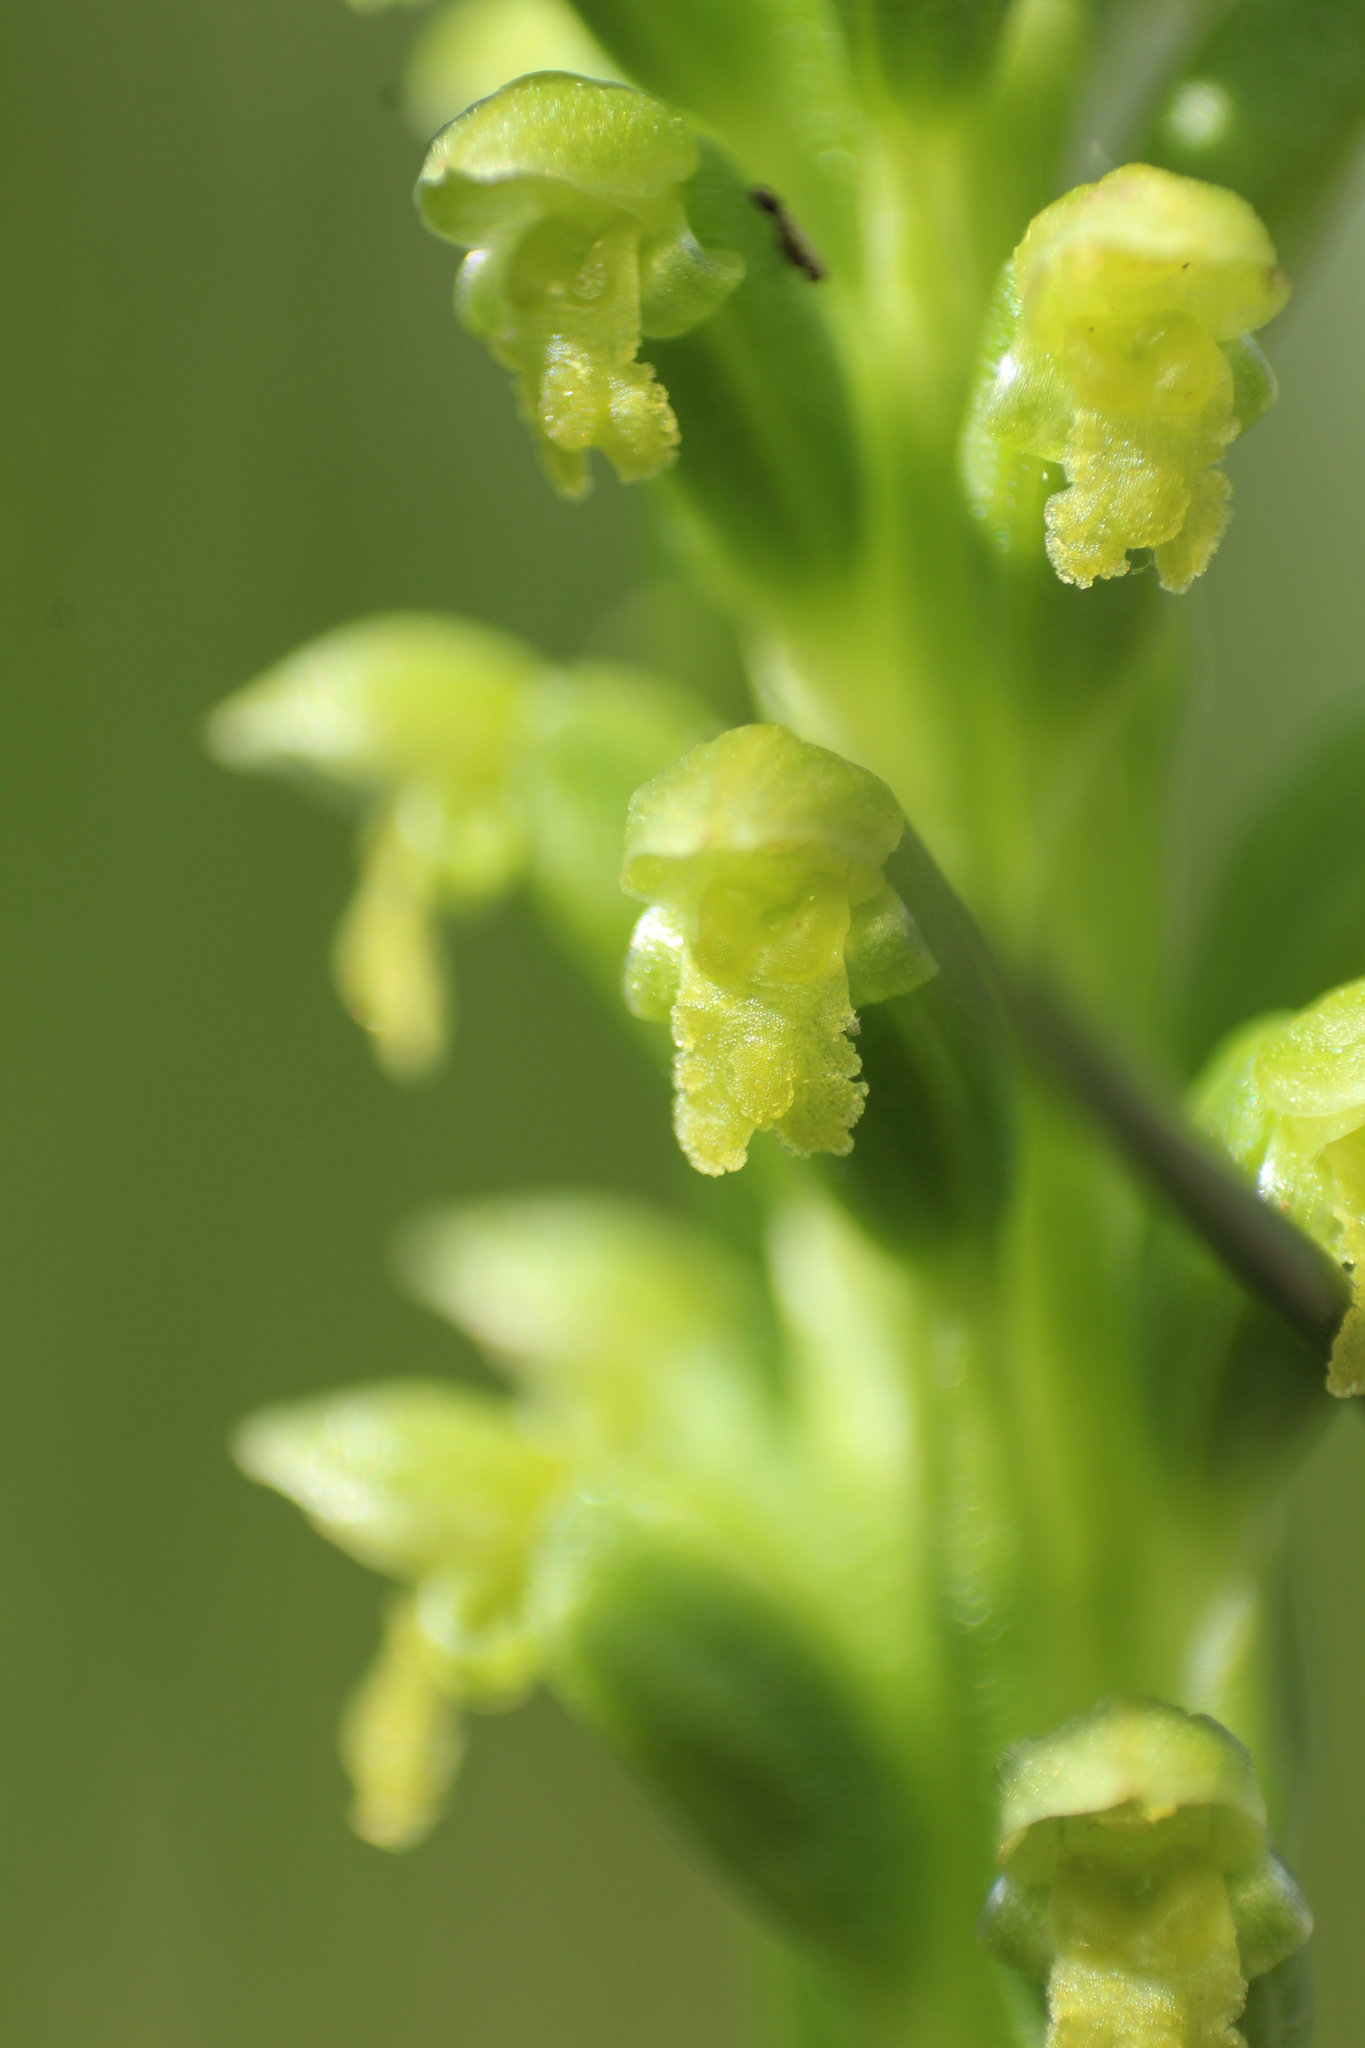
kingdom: Plantae
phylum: Tracheophyta
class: Liliopsida
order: Asparagales
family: Orchidaceae
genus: Microtis
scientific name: Microtis media
